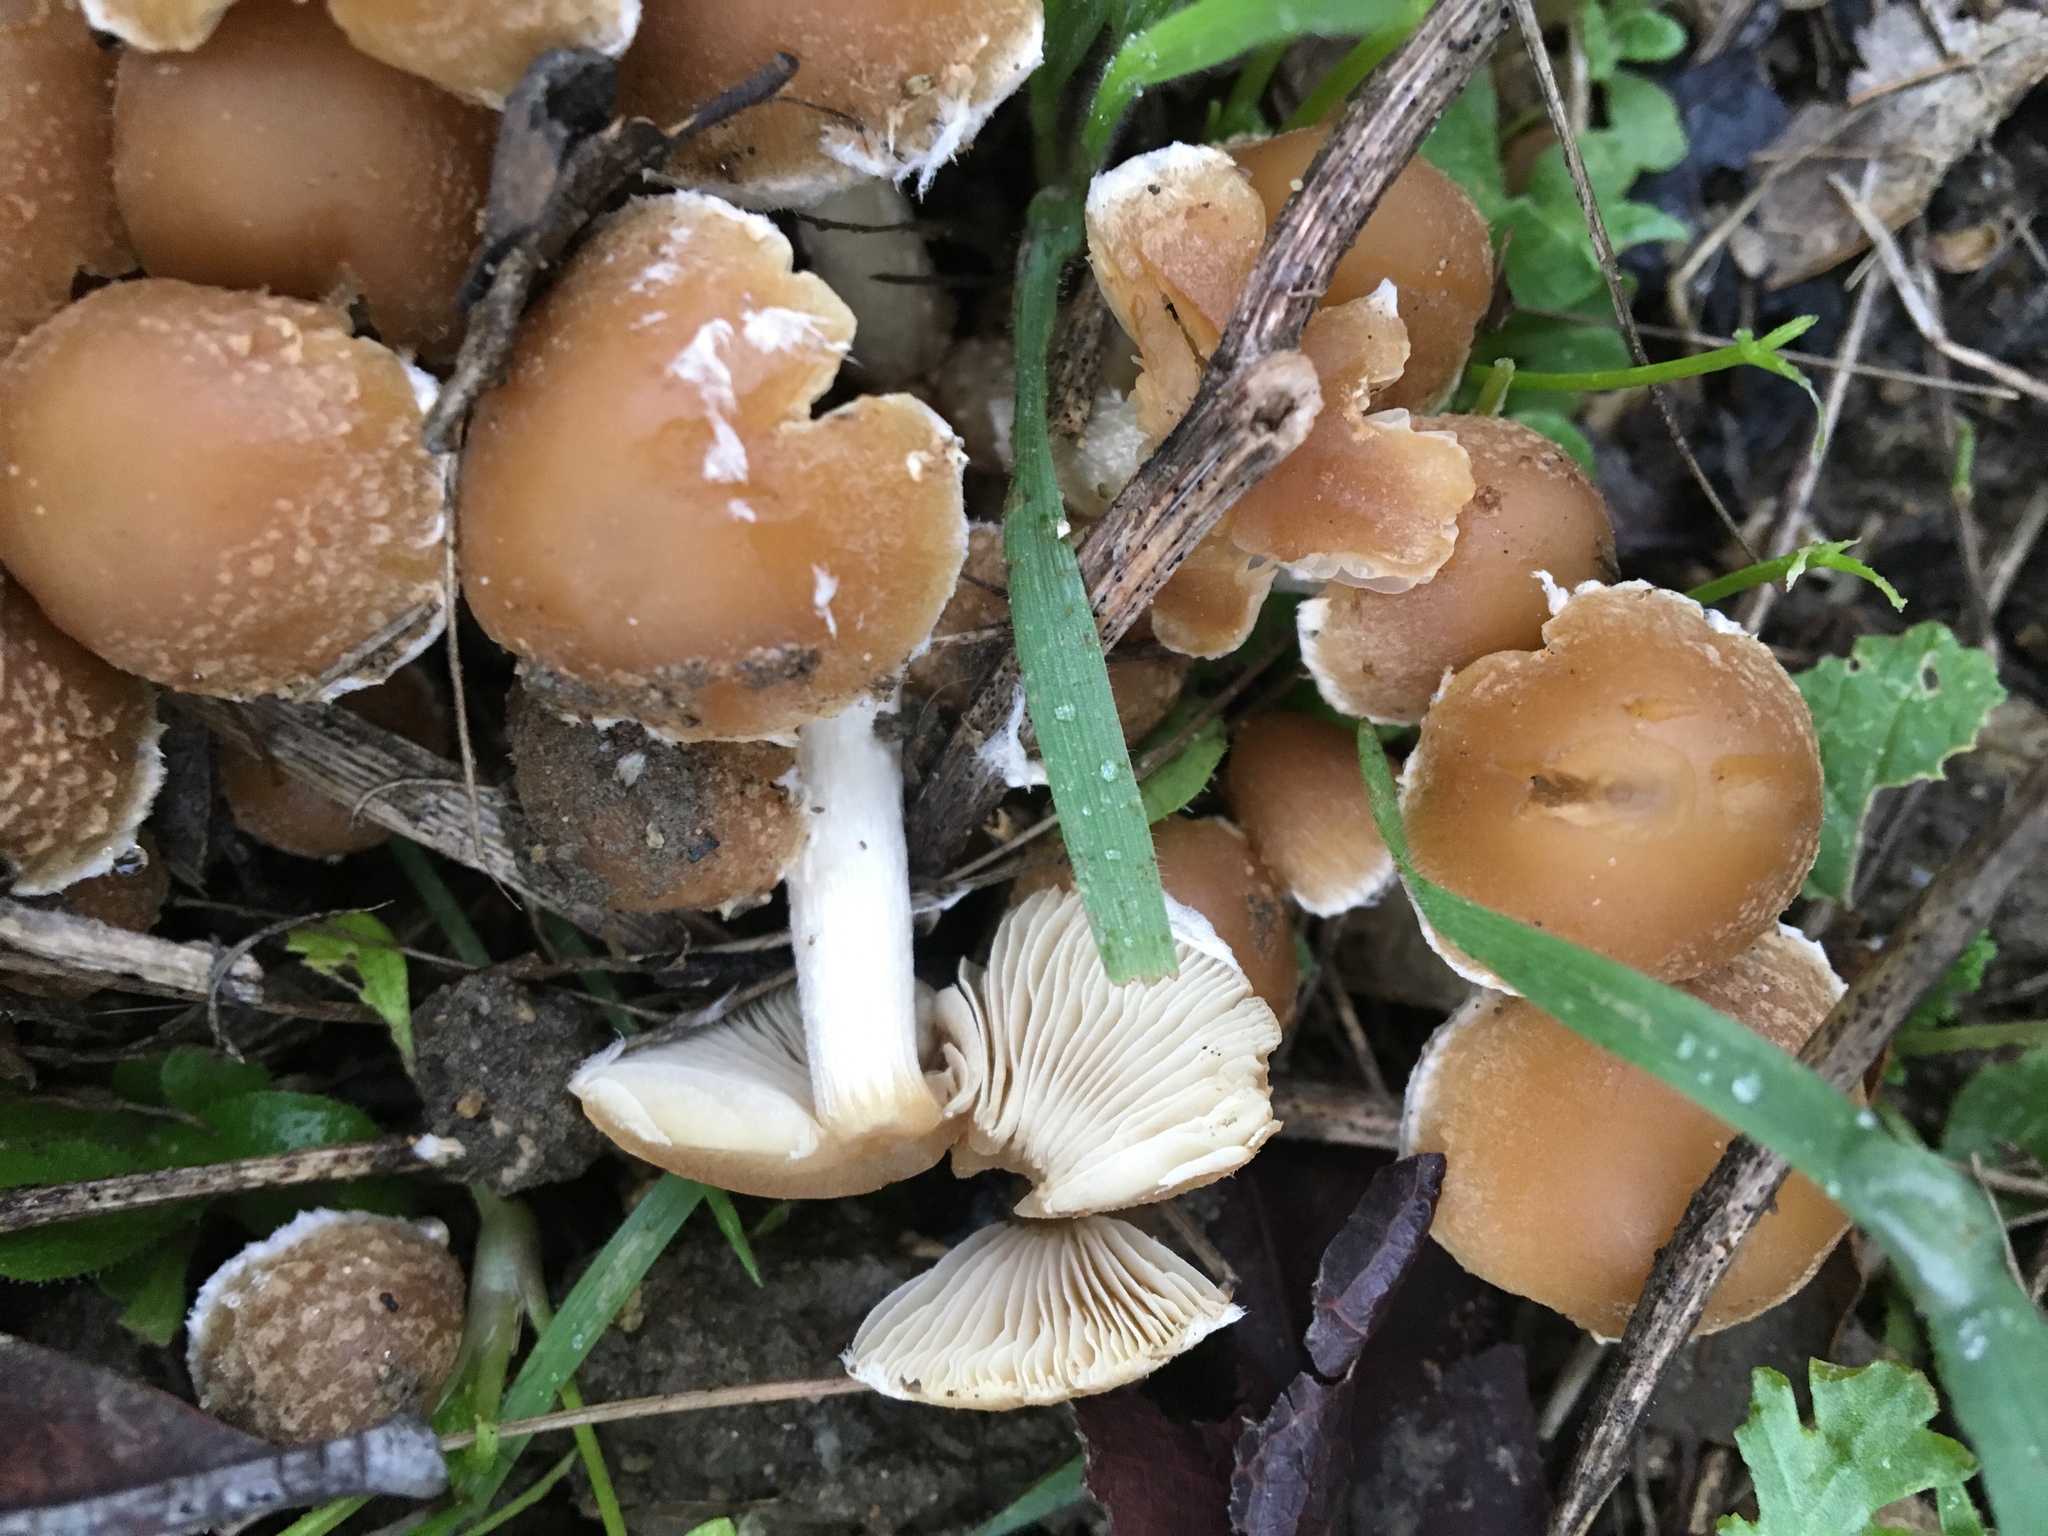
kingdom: Fungi
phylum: Basidiomycota
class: Agaricomycetes
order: Agaricales
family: Psathyrellaceae
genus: Candolleomyces
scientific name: Candolleomyces candolleanus
